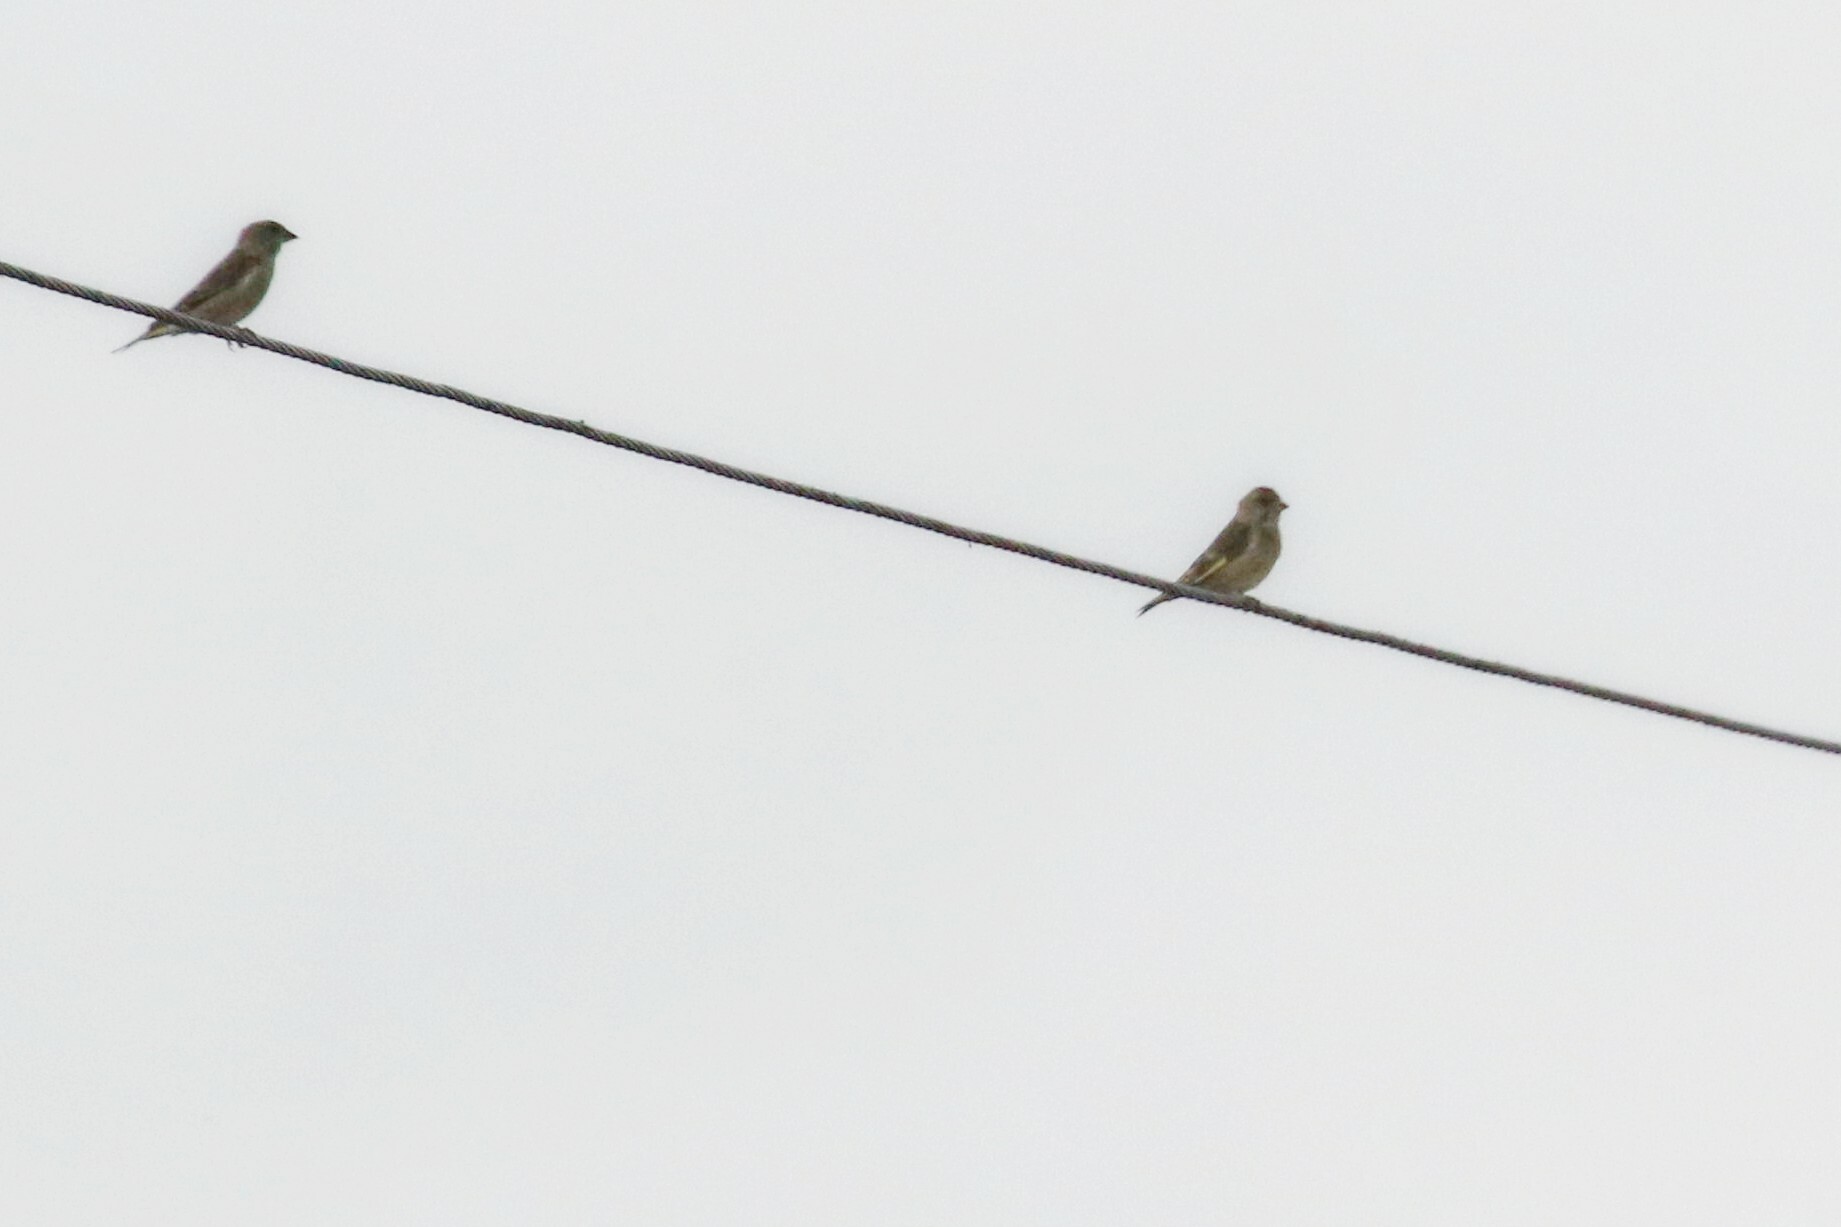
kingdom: Plantae
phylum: Tracheophyta
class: Liliopsida
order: Poales
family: Poaceae
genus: Chloris
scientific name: Chloris chloris
